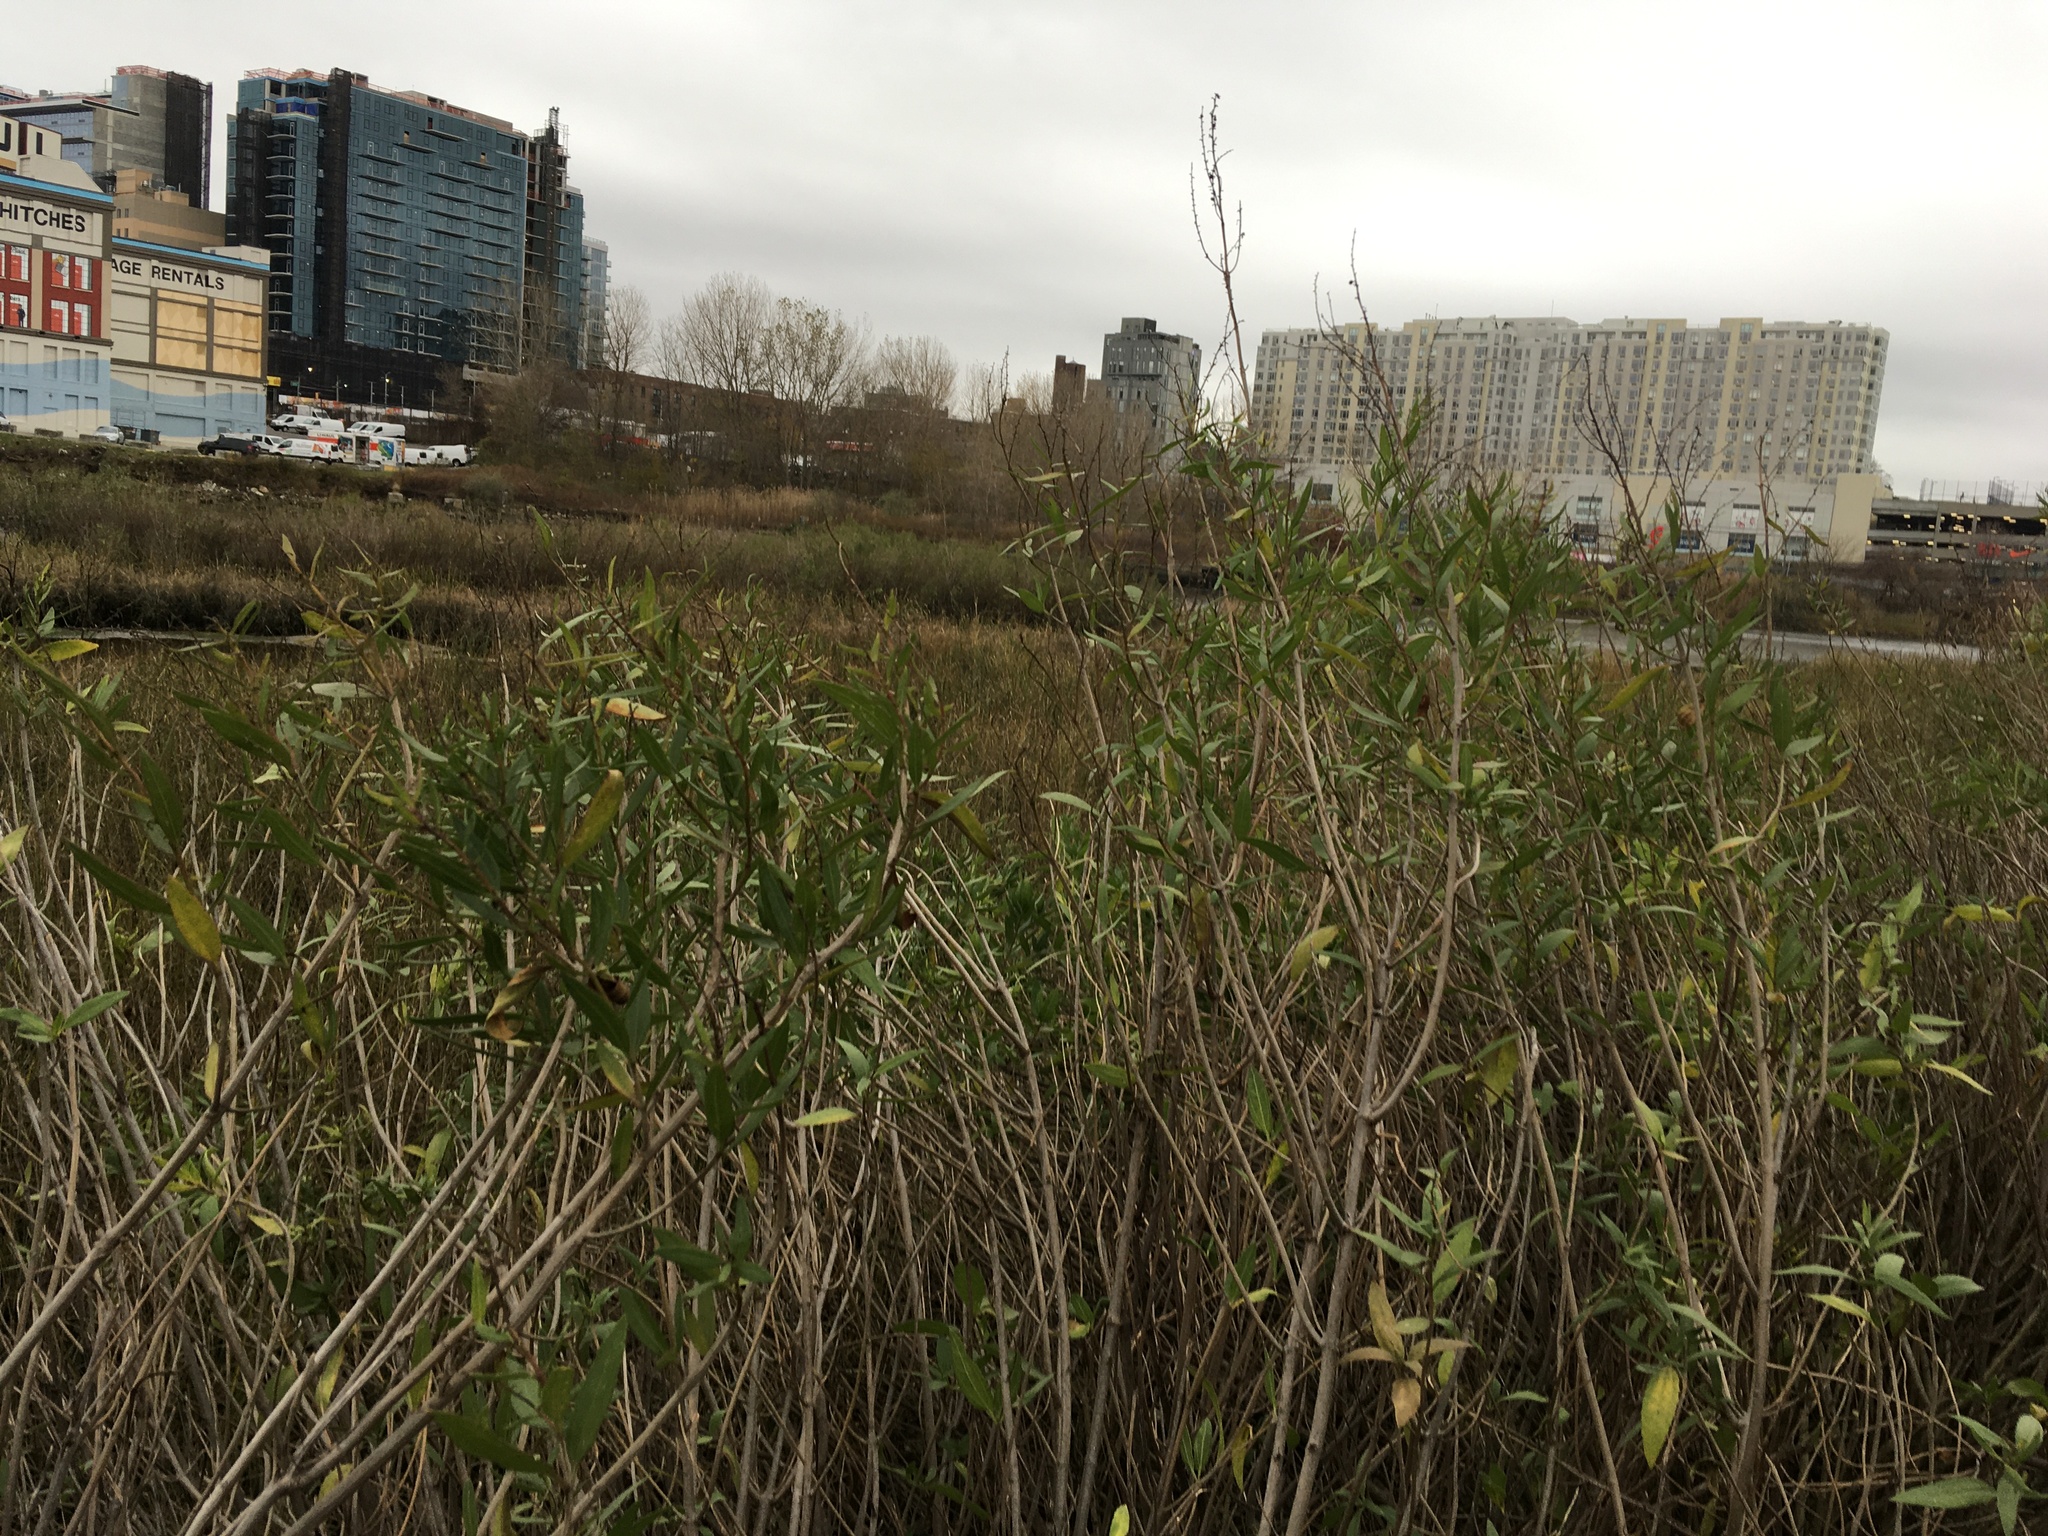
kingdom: Plantae
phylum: Tracheophyta
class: Magnoliopsida
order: Asterales
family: Asteraceae
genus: Iva
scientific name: Iva frutescens
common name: Big-leaved marsh-elder
